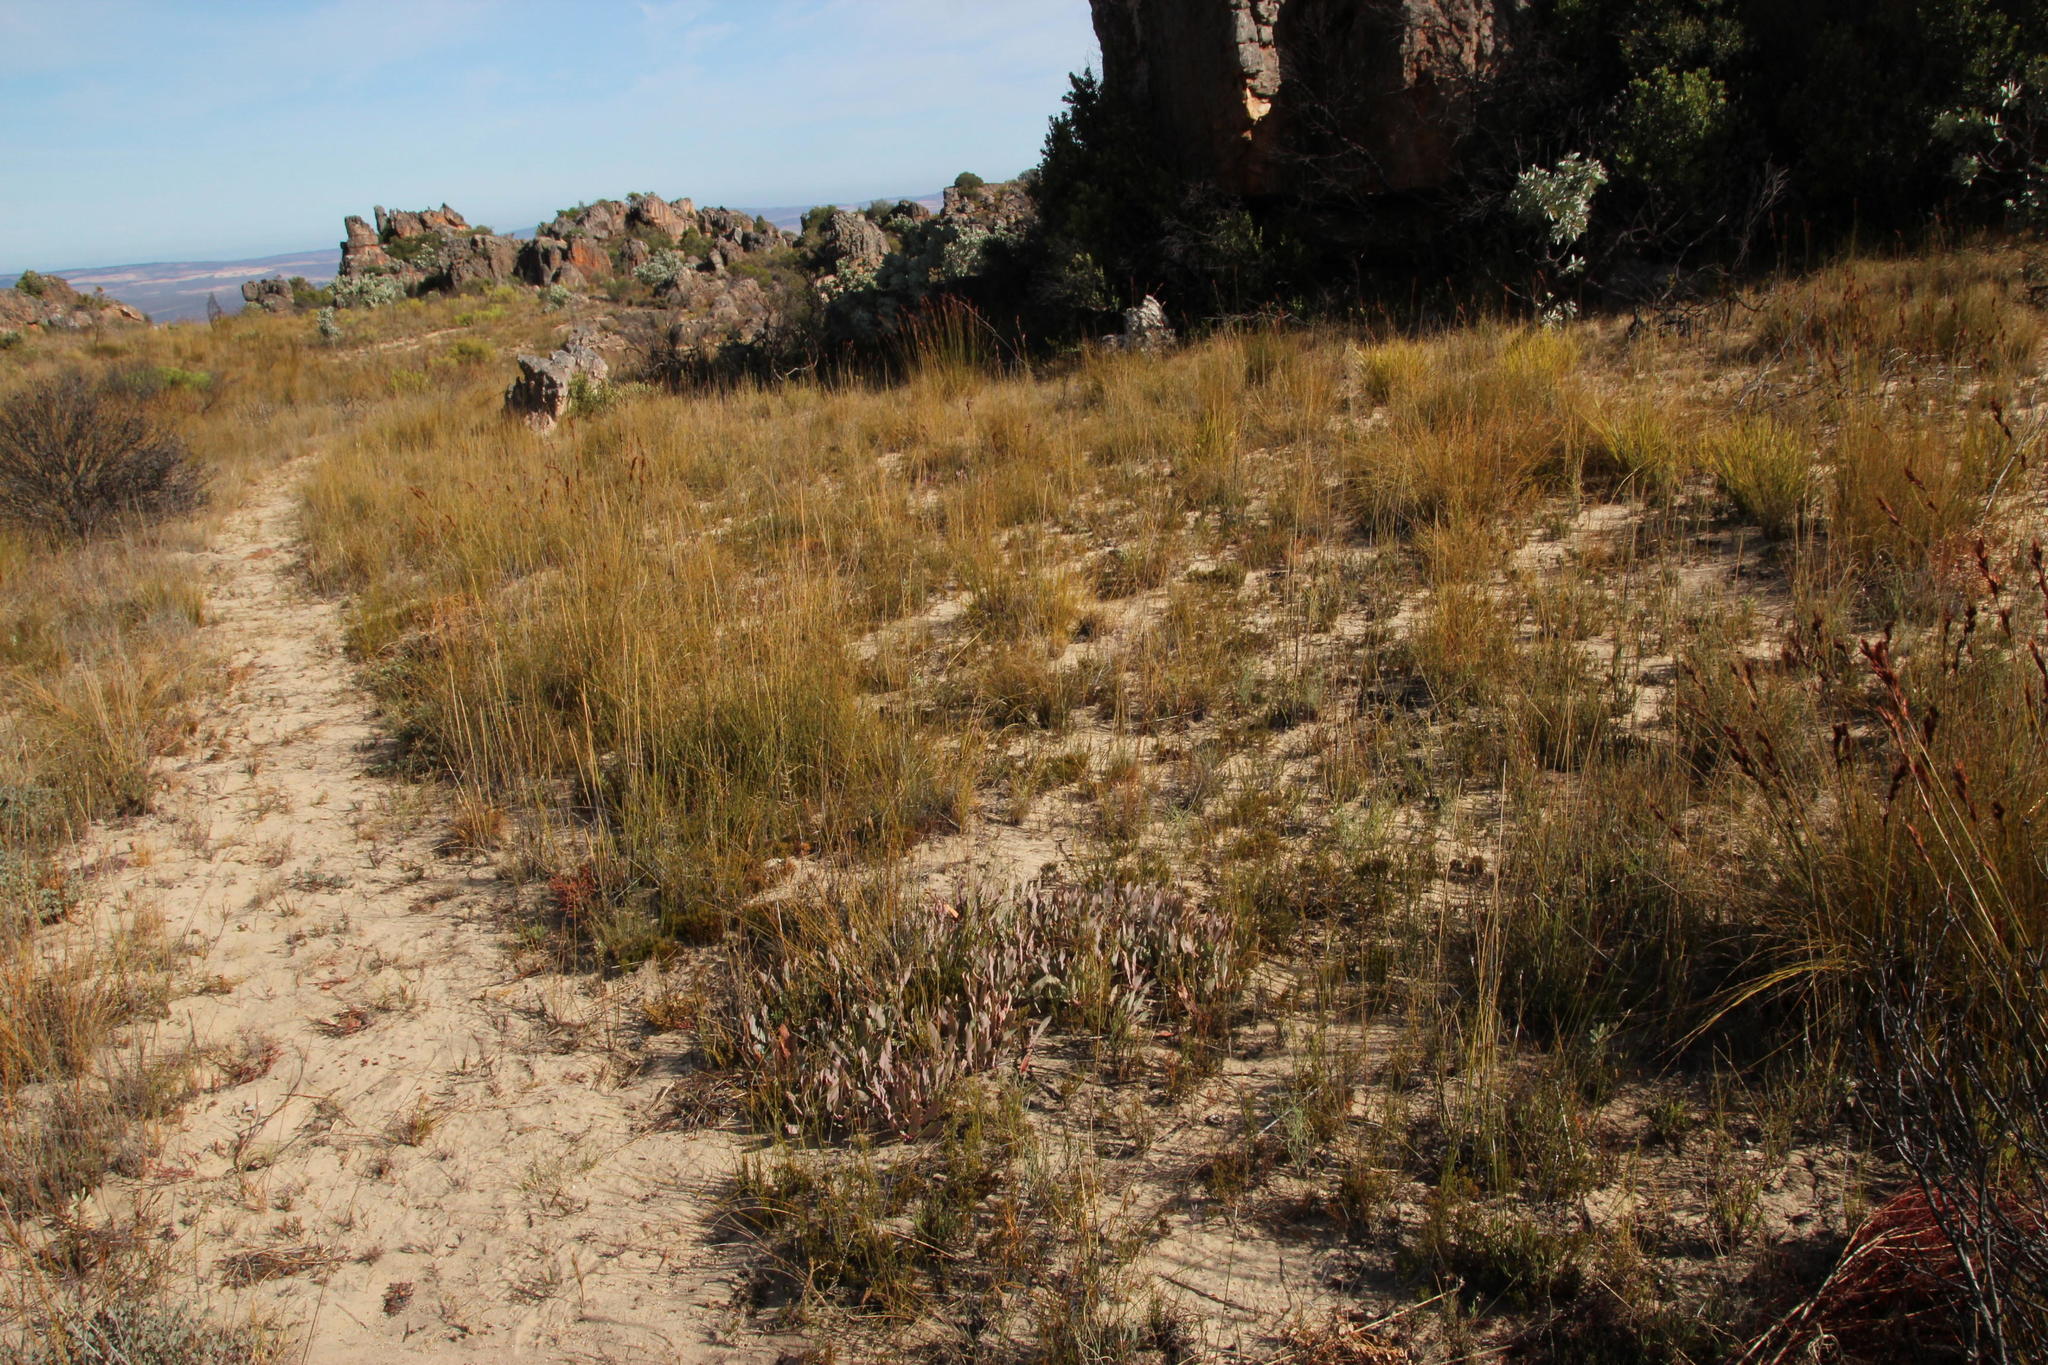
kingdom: Plantae
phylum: Tracheophyta
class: Magnoliopsida
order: Proteales
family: Proteaceae
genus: Protea
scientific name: Protea laevis
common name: Smooth-leaf sugarbush
